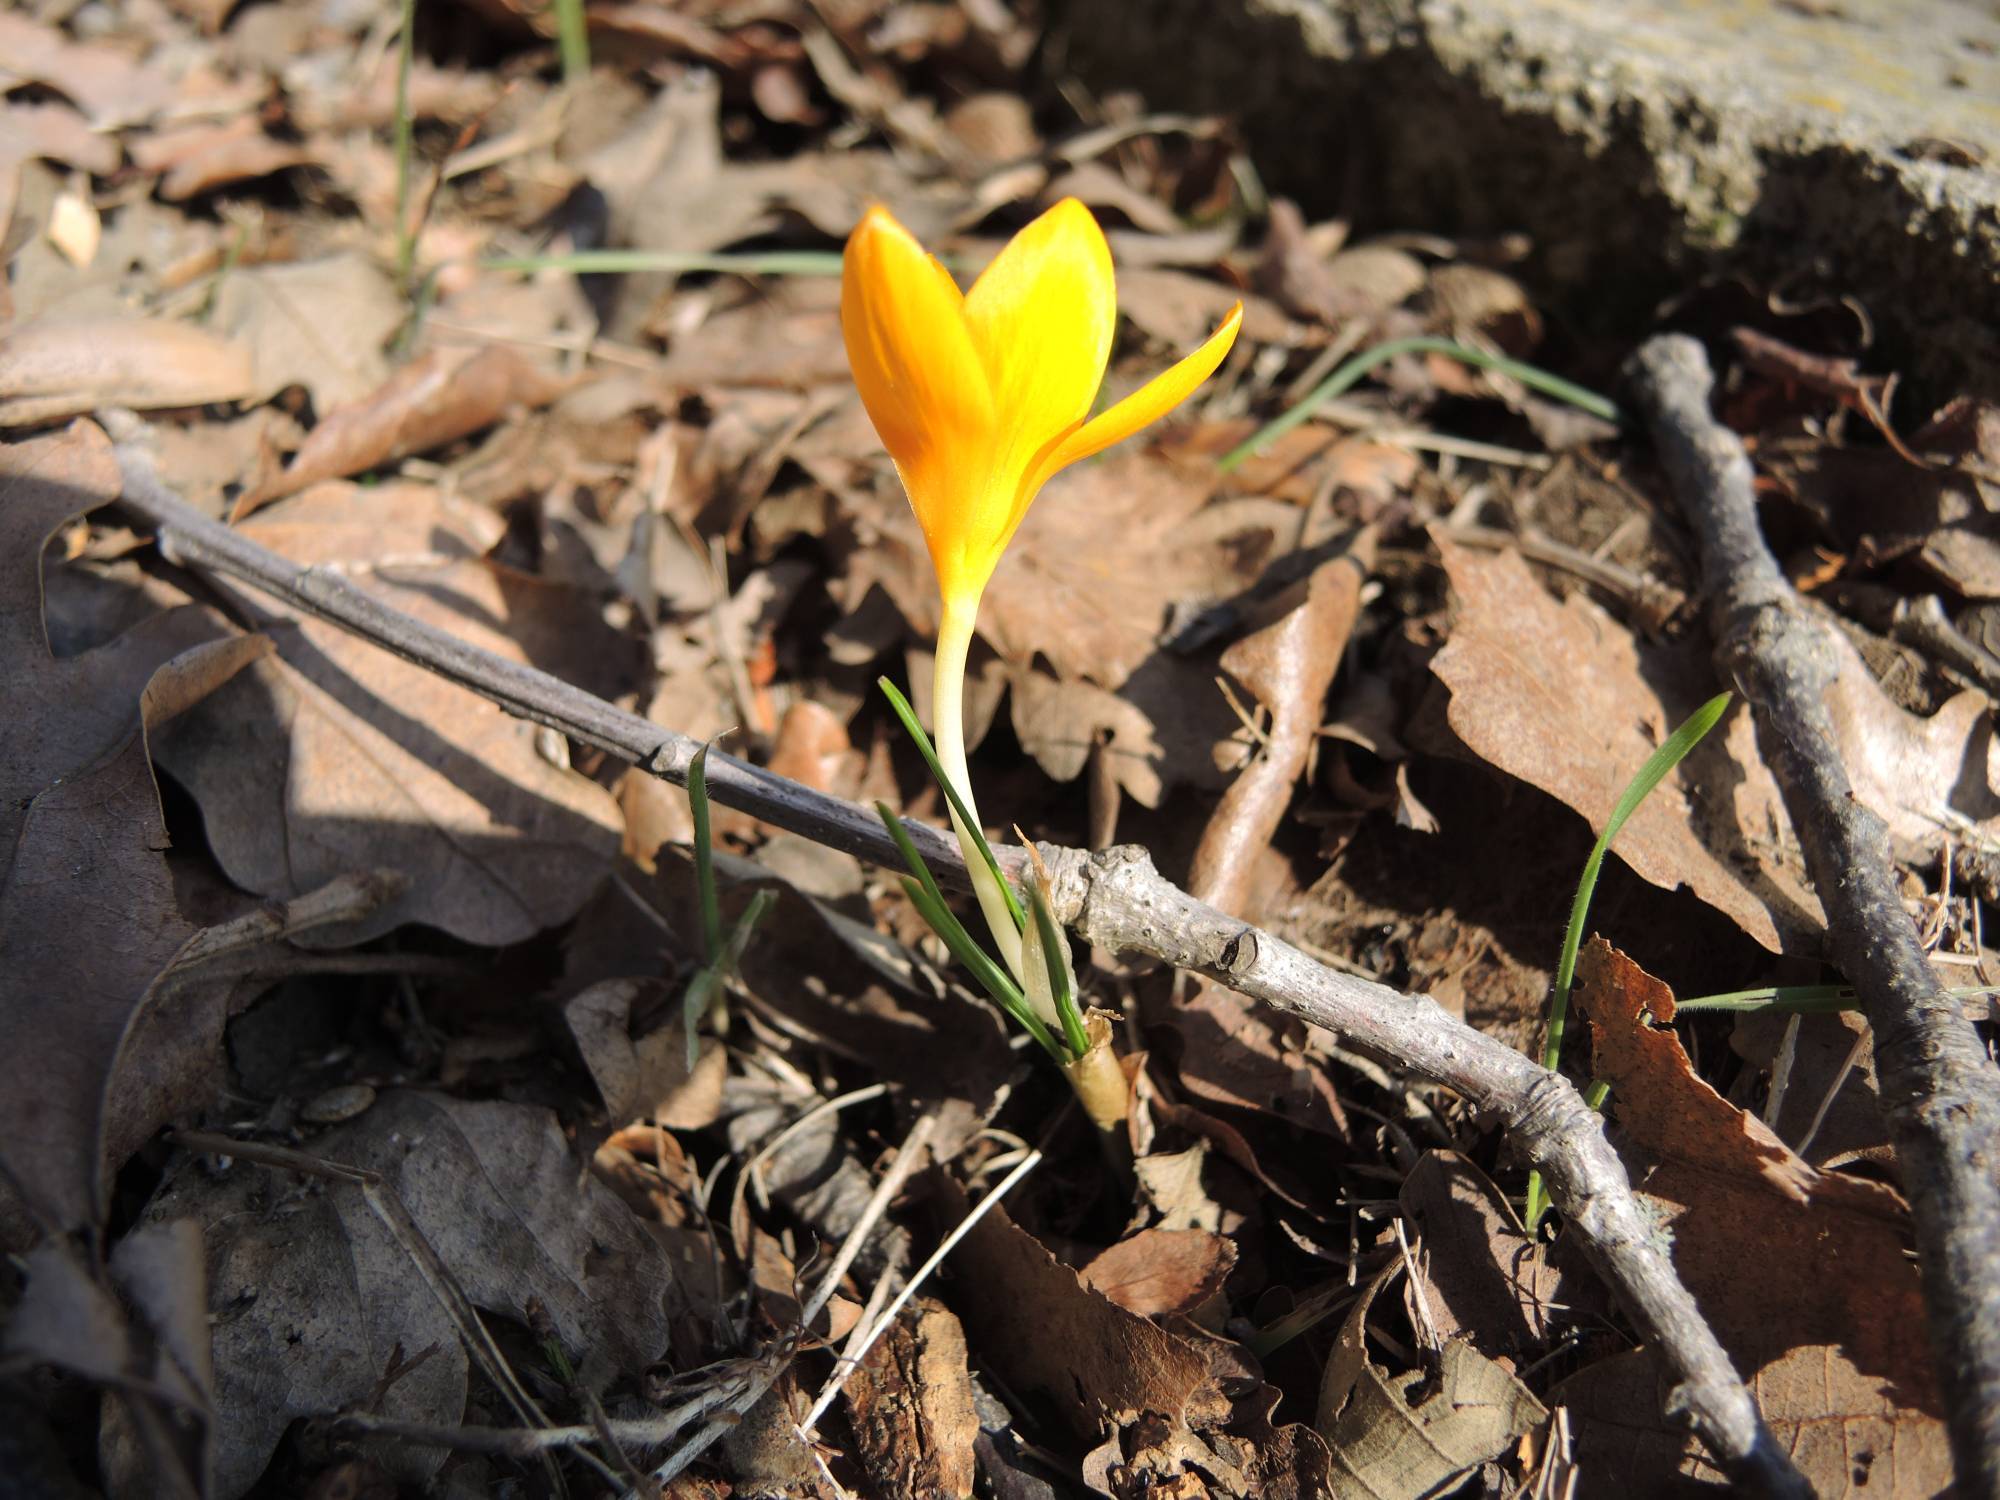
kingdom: Plantae
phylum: Tracheophyta
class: Liliopsida
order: Asparagales
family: Iridaceae
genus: Crocus
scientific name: Crocus flavus
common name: Yellow crocus
